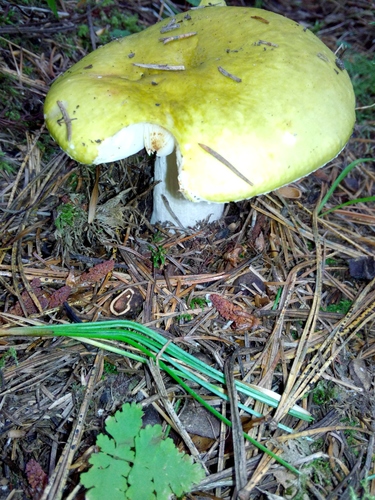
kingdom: Fungi
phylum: Basidiomycota
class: Agaricomycetes
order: Russulales
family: Russulaceae
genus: Russula
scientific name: Russula
